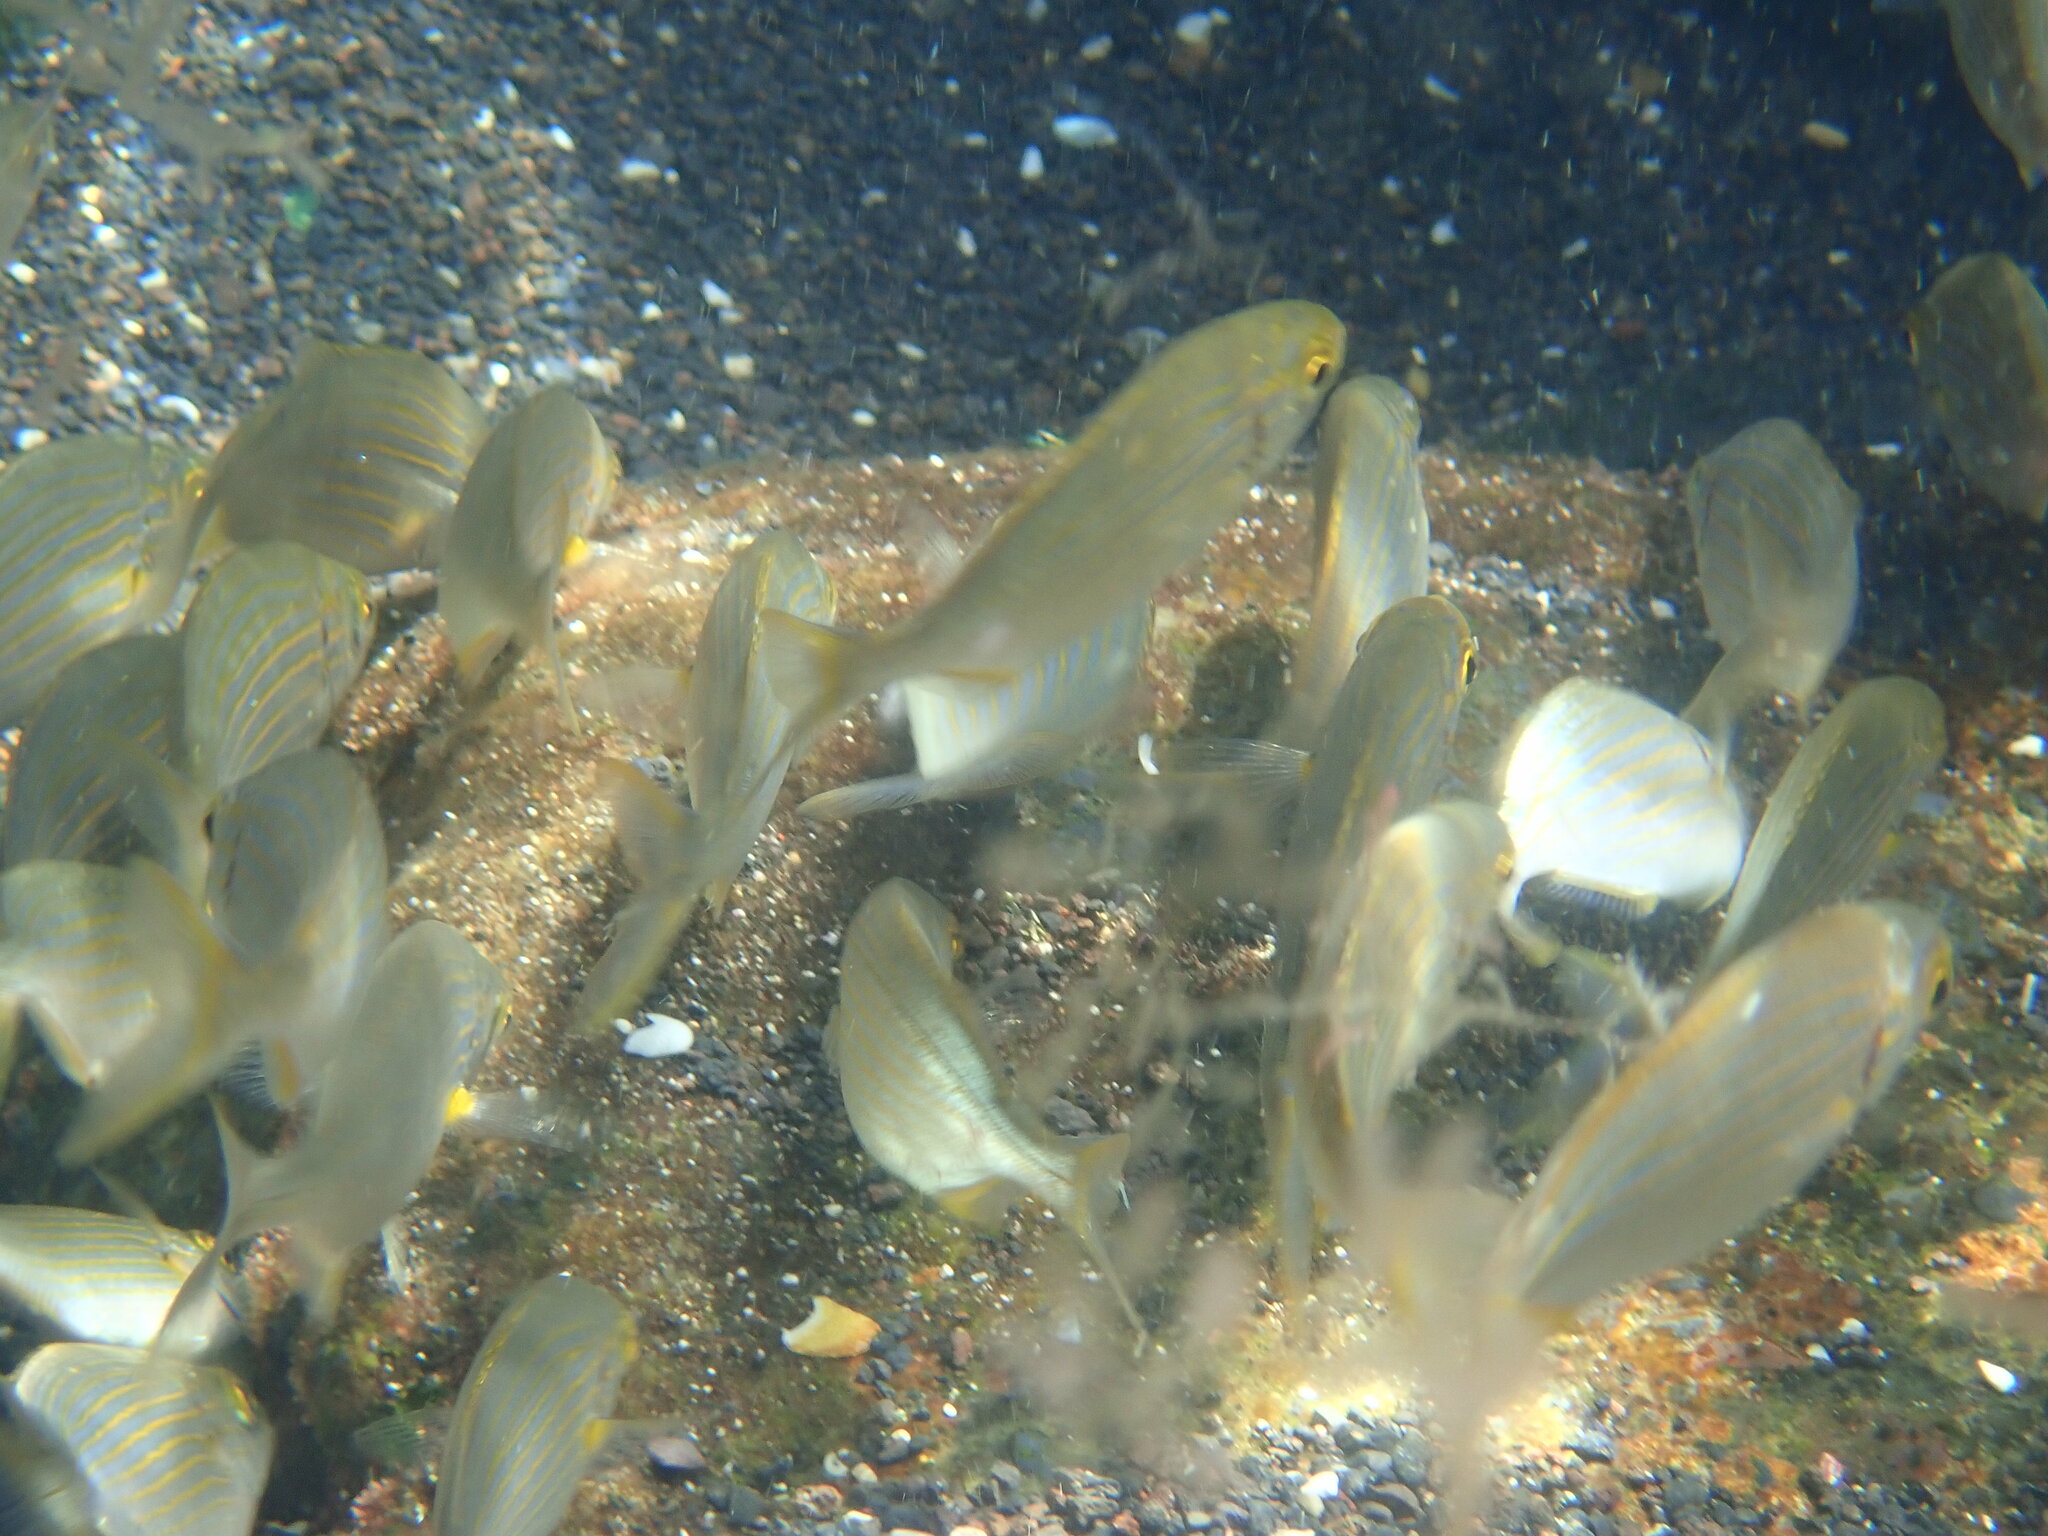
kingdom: Animalia
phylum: Chordata
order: Perciformes
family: Sparidae
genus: Sarpa
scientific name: Sarpa salpa
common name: Salema
